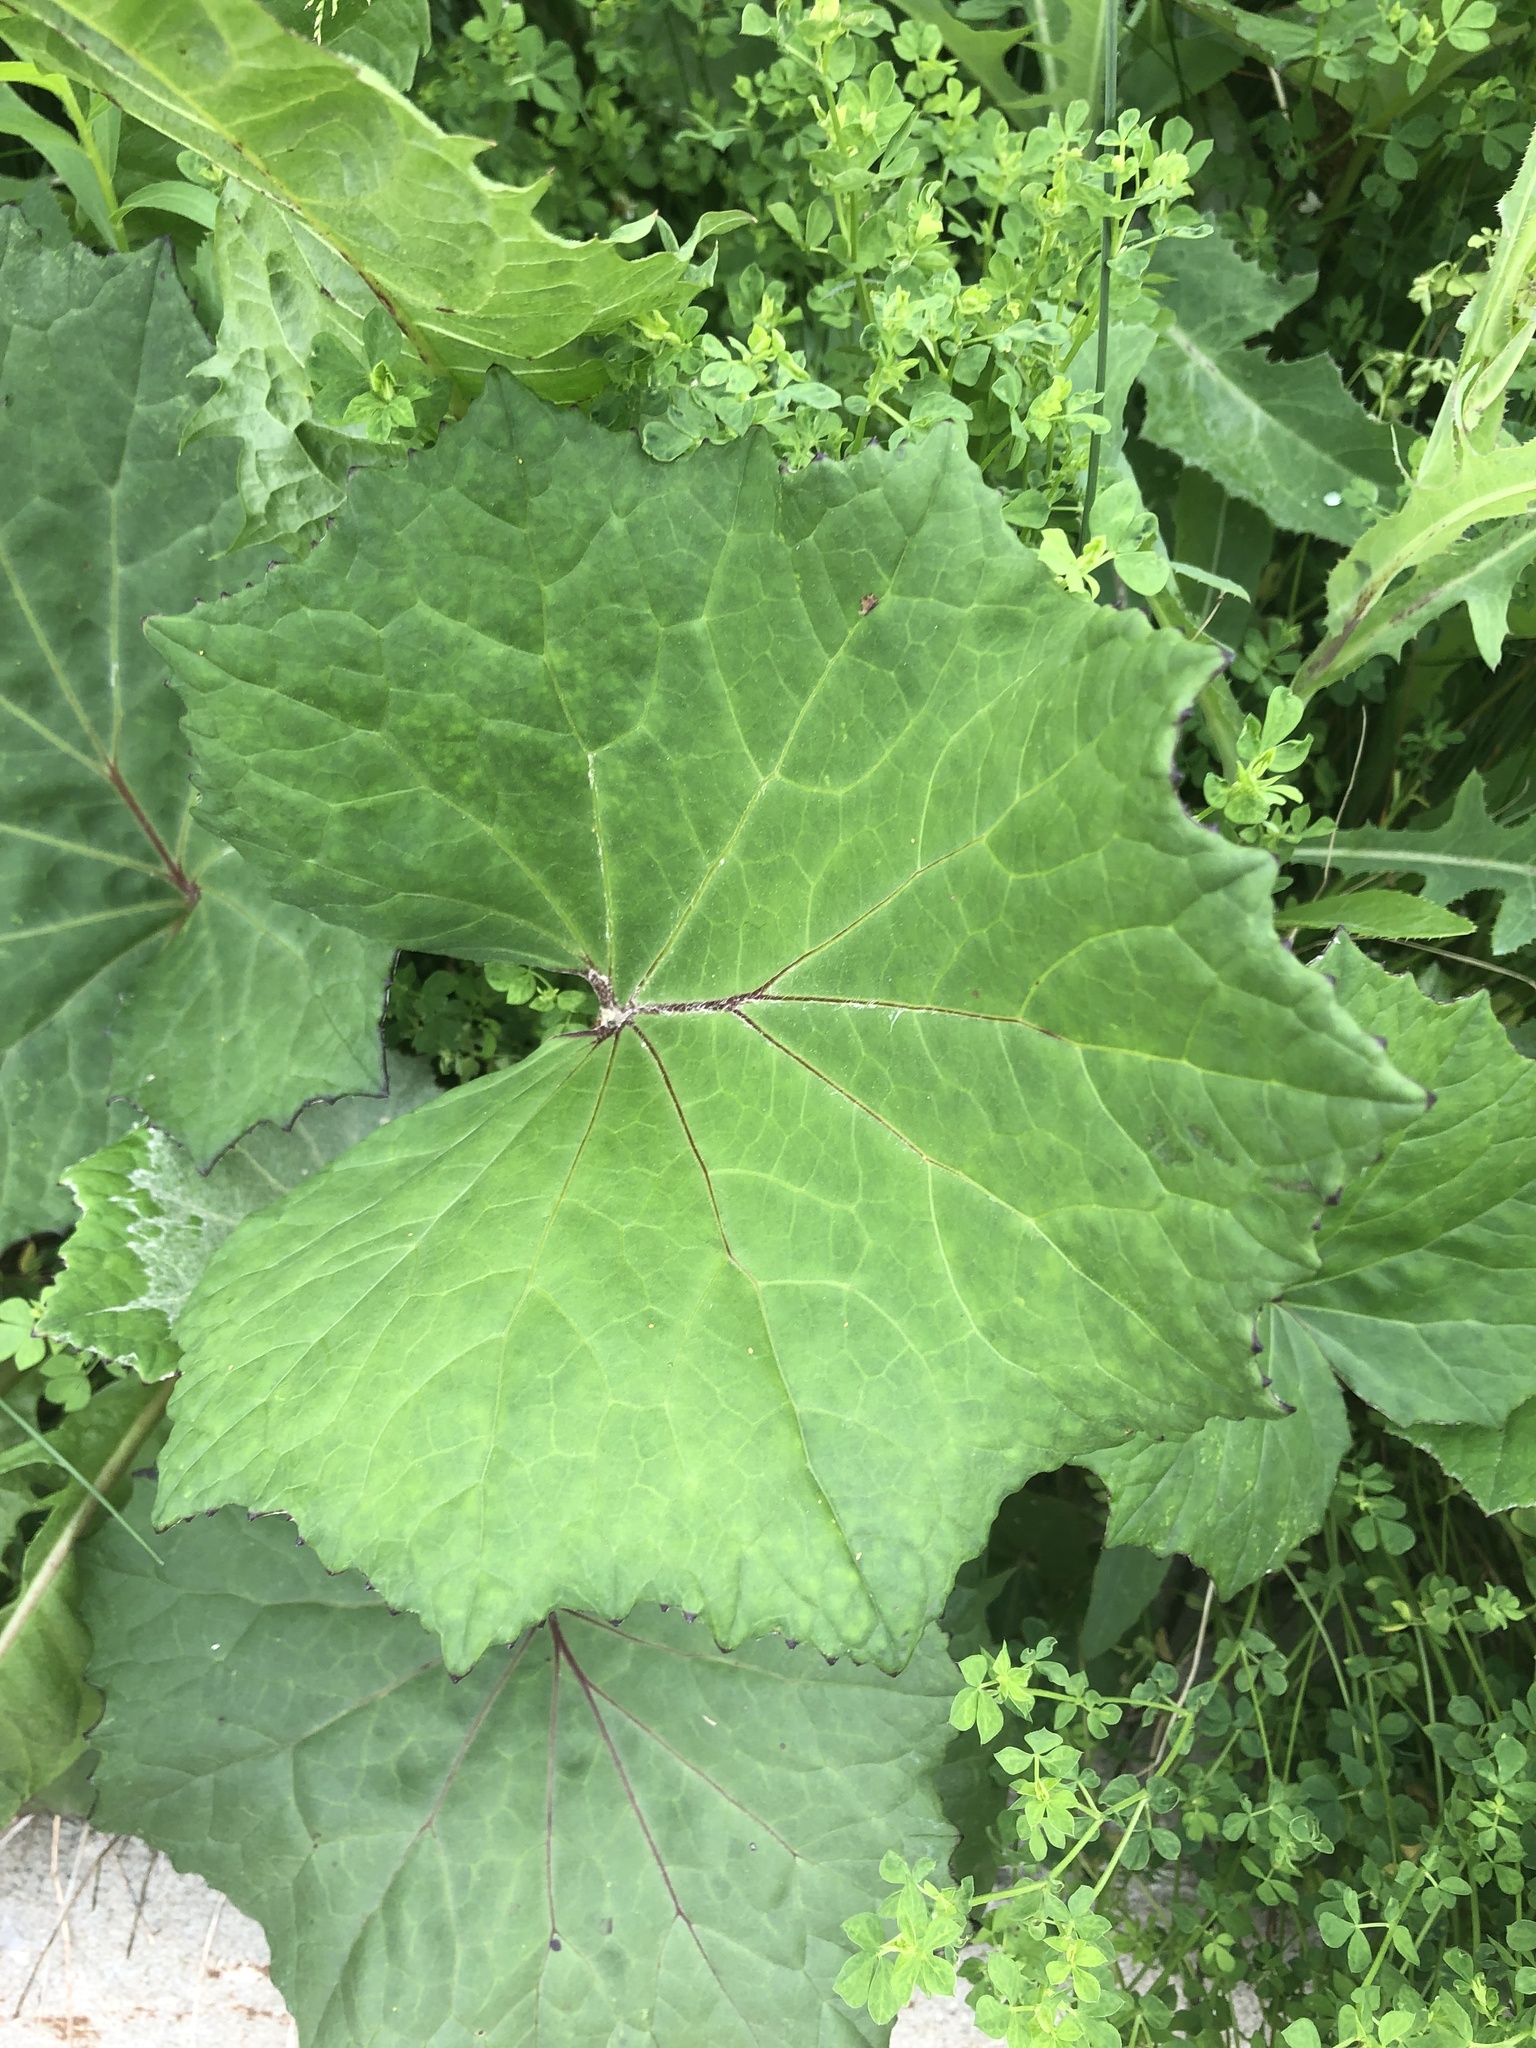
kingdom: Plantae
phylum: Tracheophyta
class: Magnoliopsida
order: Asterales
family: Asteraceae
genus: Tussilago
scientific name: Tussilago farfara
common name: Coltsfoot
